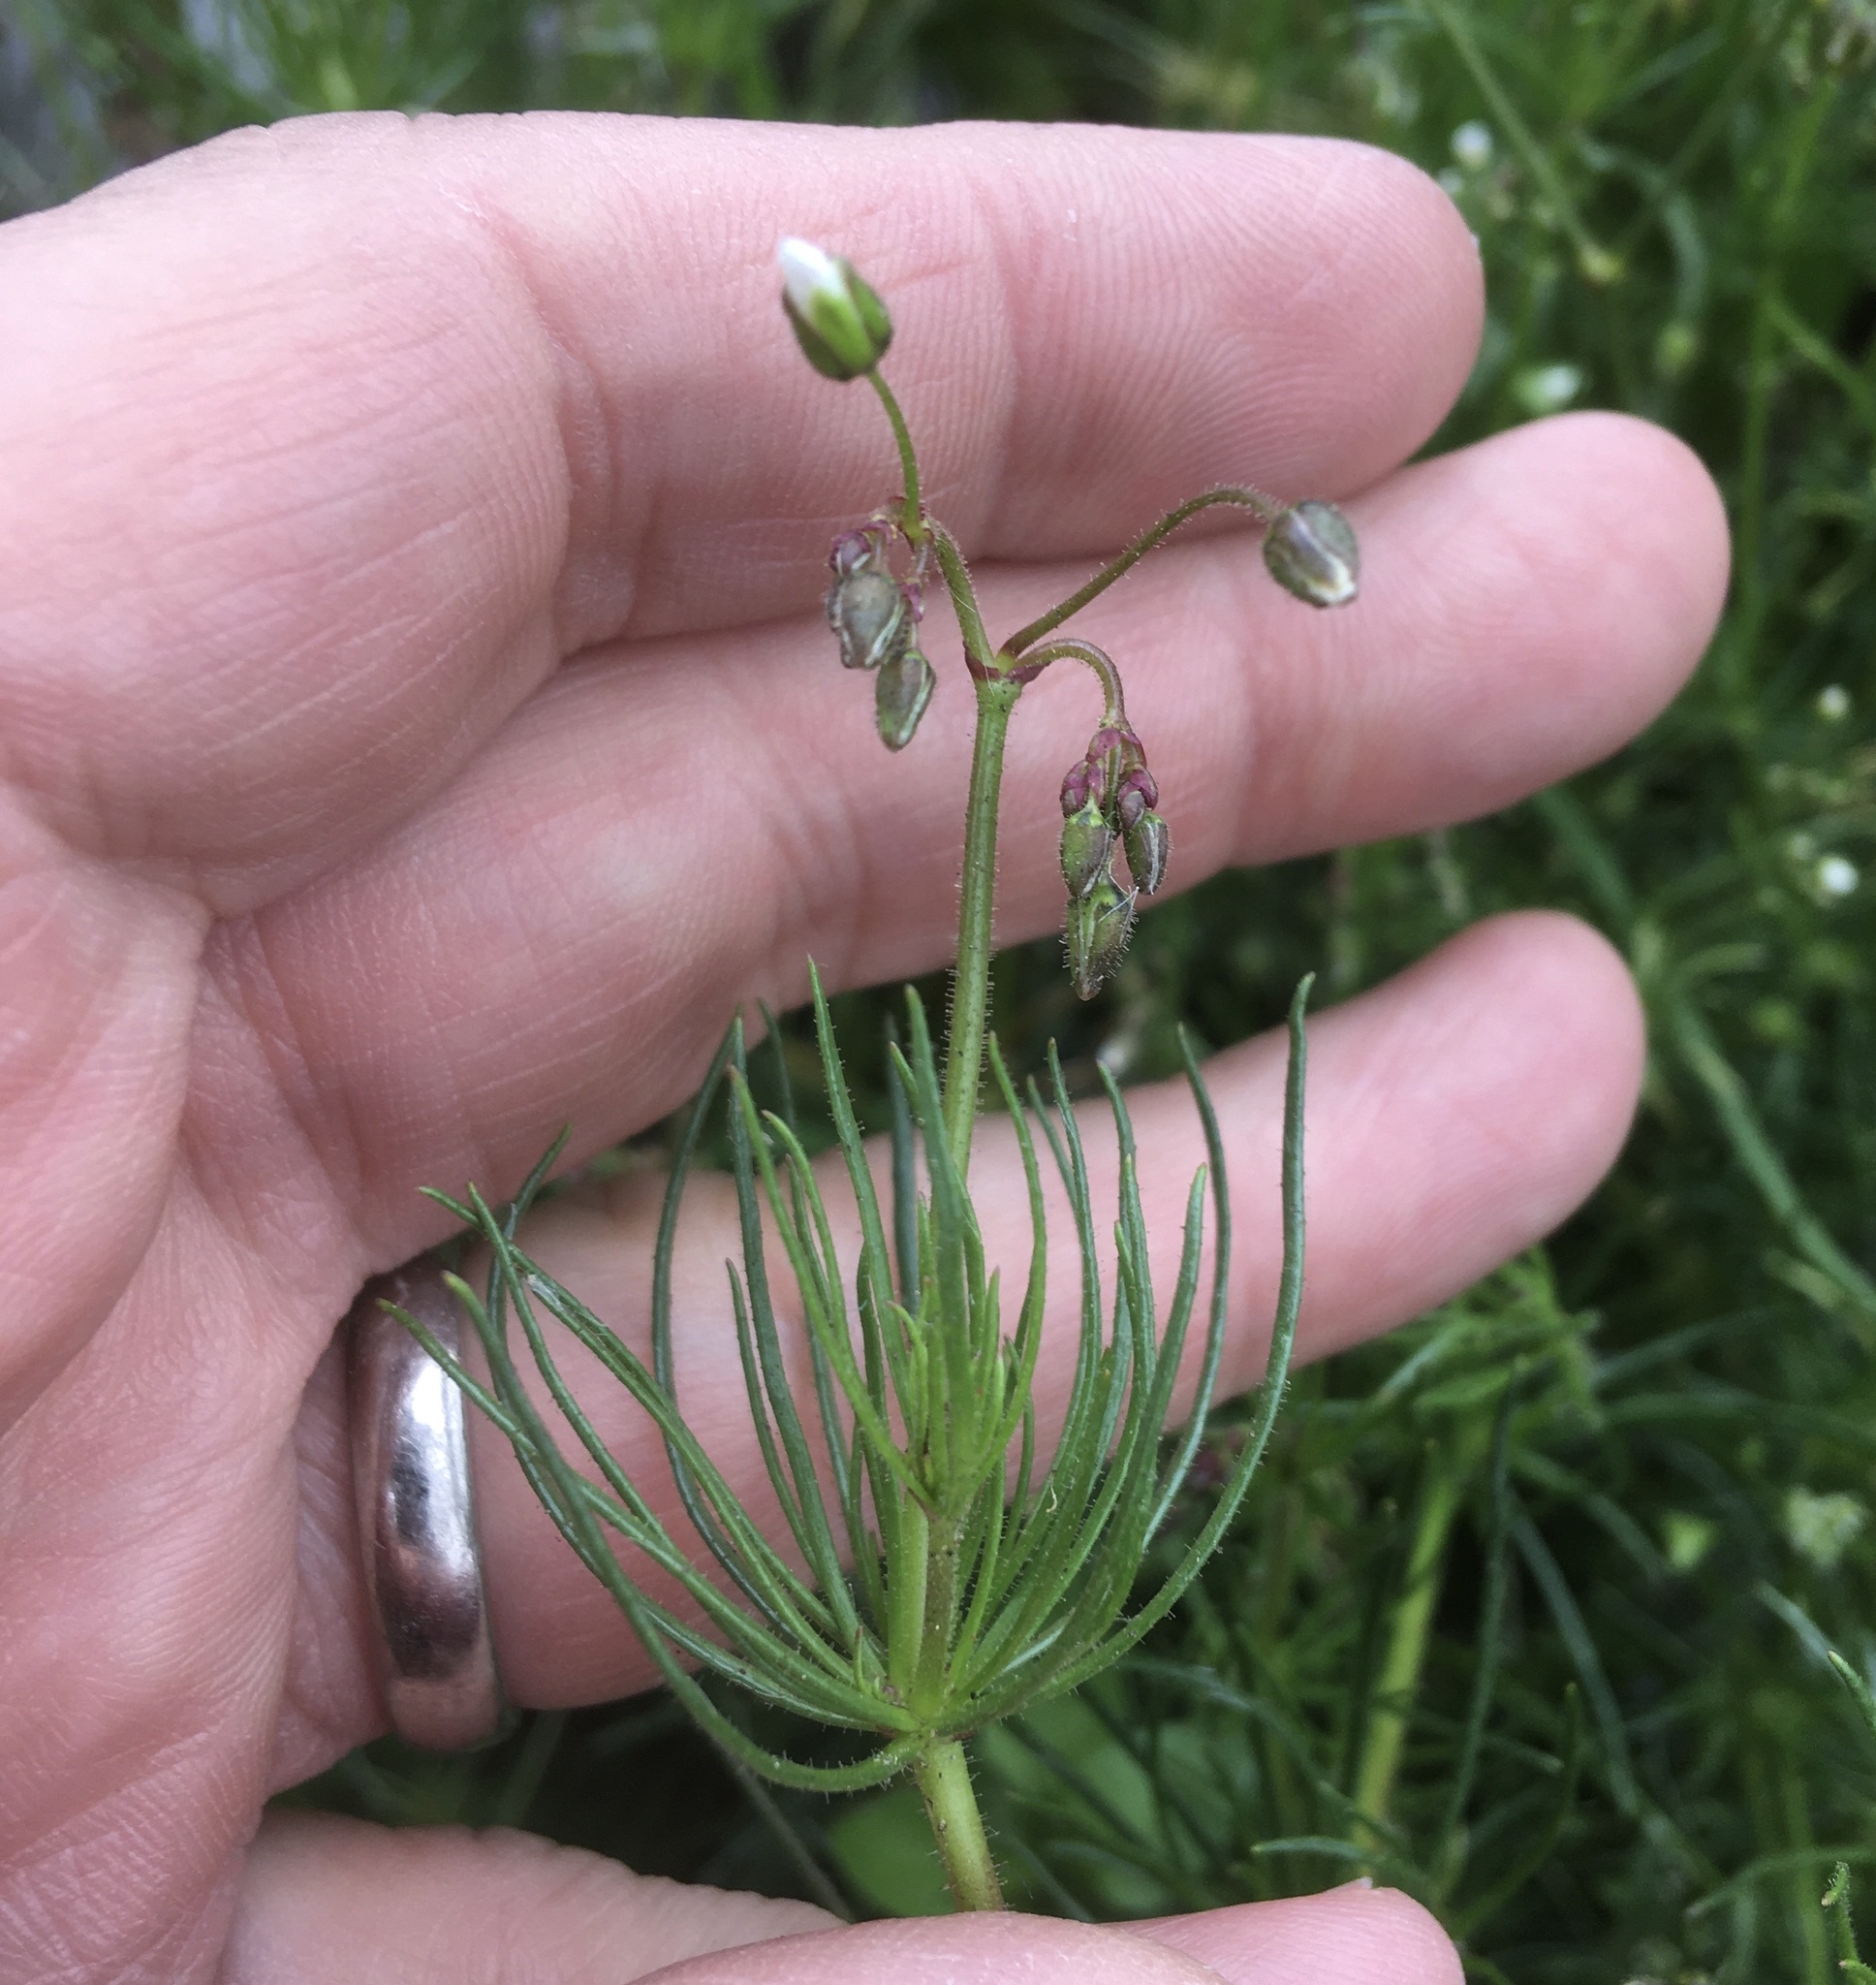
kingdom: Plantae
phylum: Tracheophyta
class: Magnoliopsida
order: Caryophyllales
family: Caryophyllaceae
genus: Spergula
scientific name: Spergula arvensis
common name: Corn spurrey
